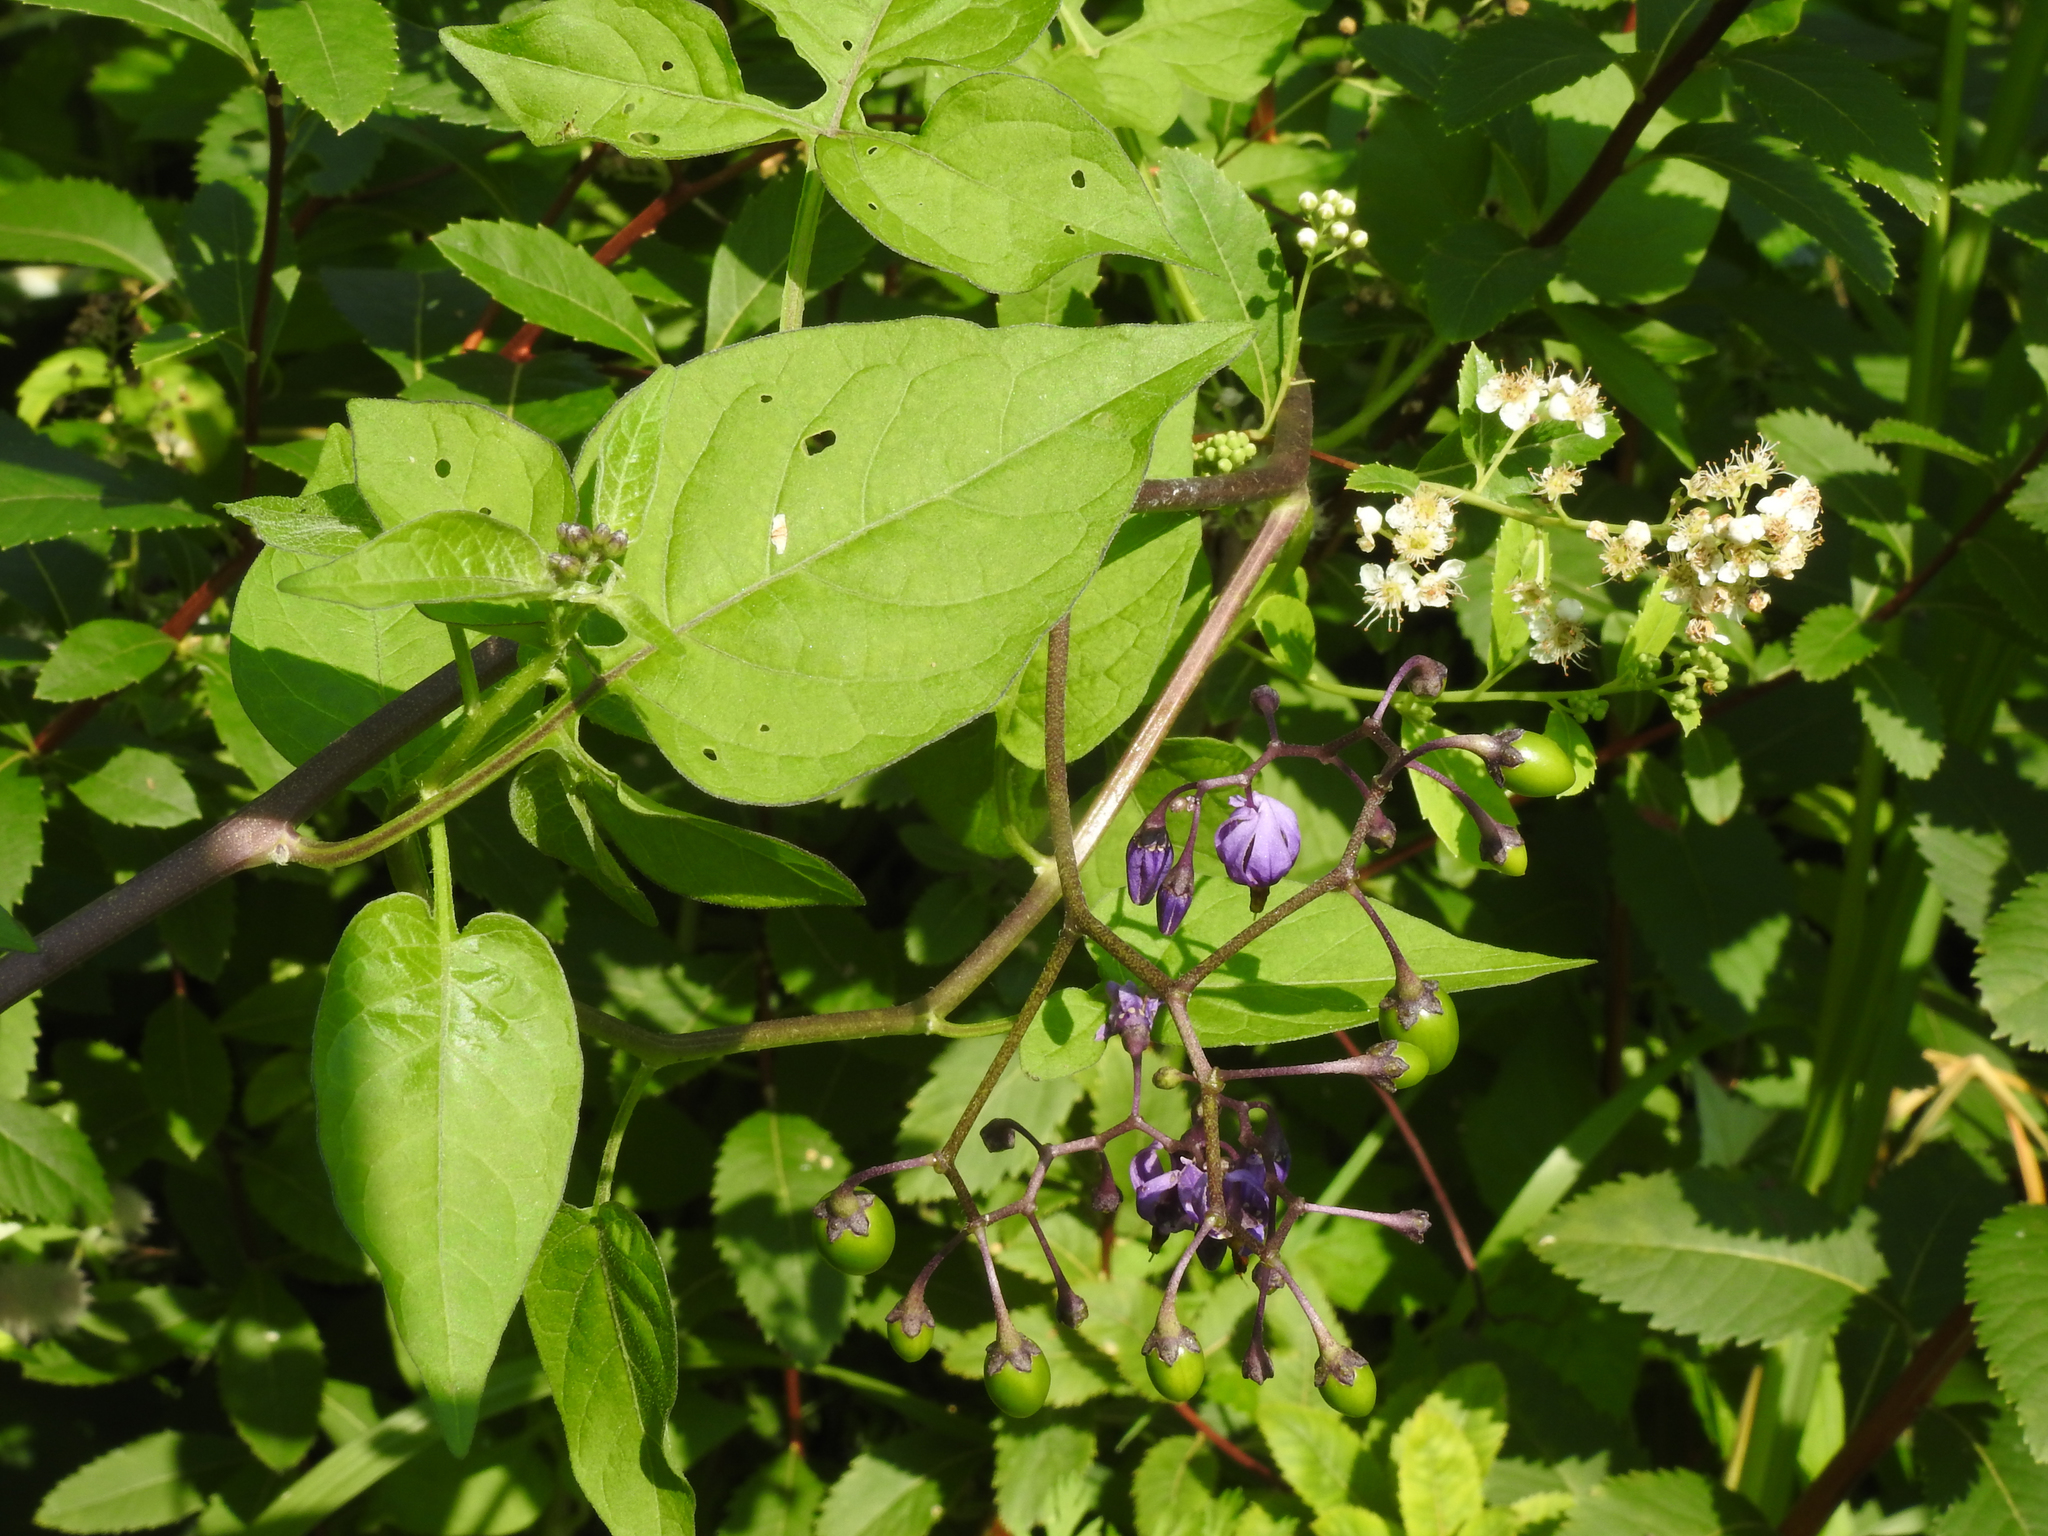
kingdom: Plantae
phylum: Tracheophyta
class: Magnoliopsida
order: Solanales
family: Solanaceae
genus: Solanum
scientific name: Solanum dulcamara
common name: Climbing nightshade
